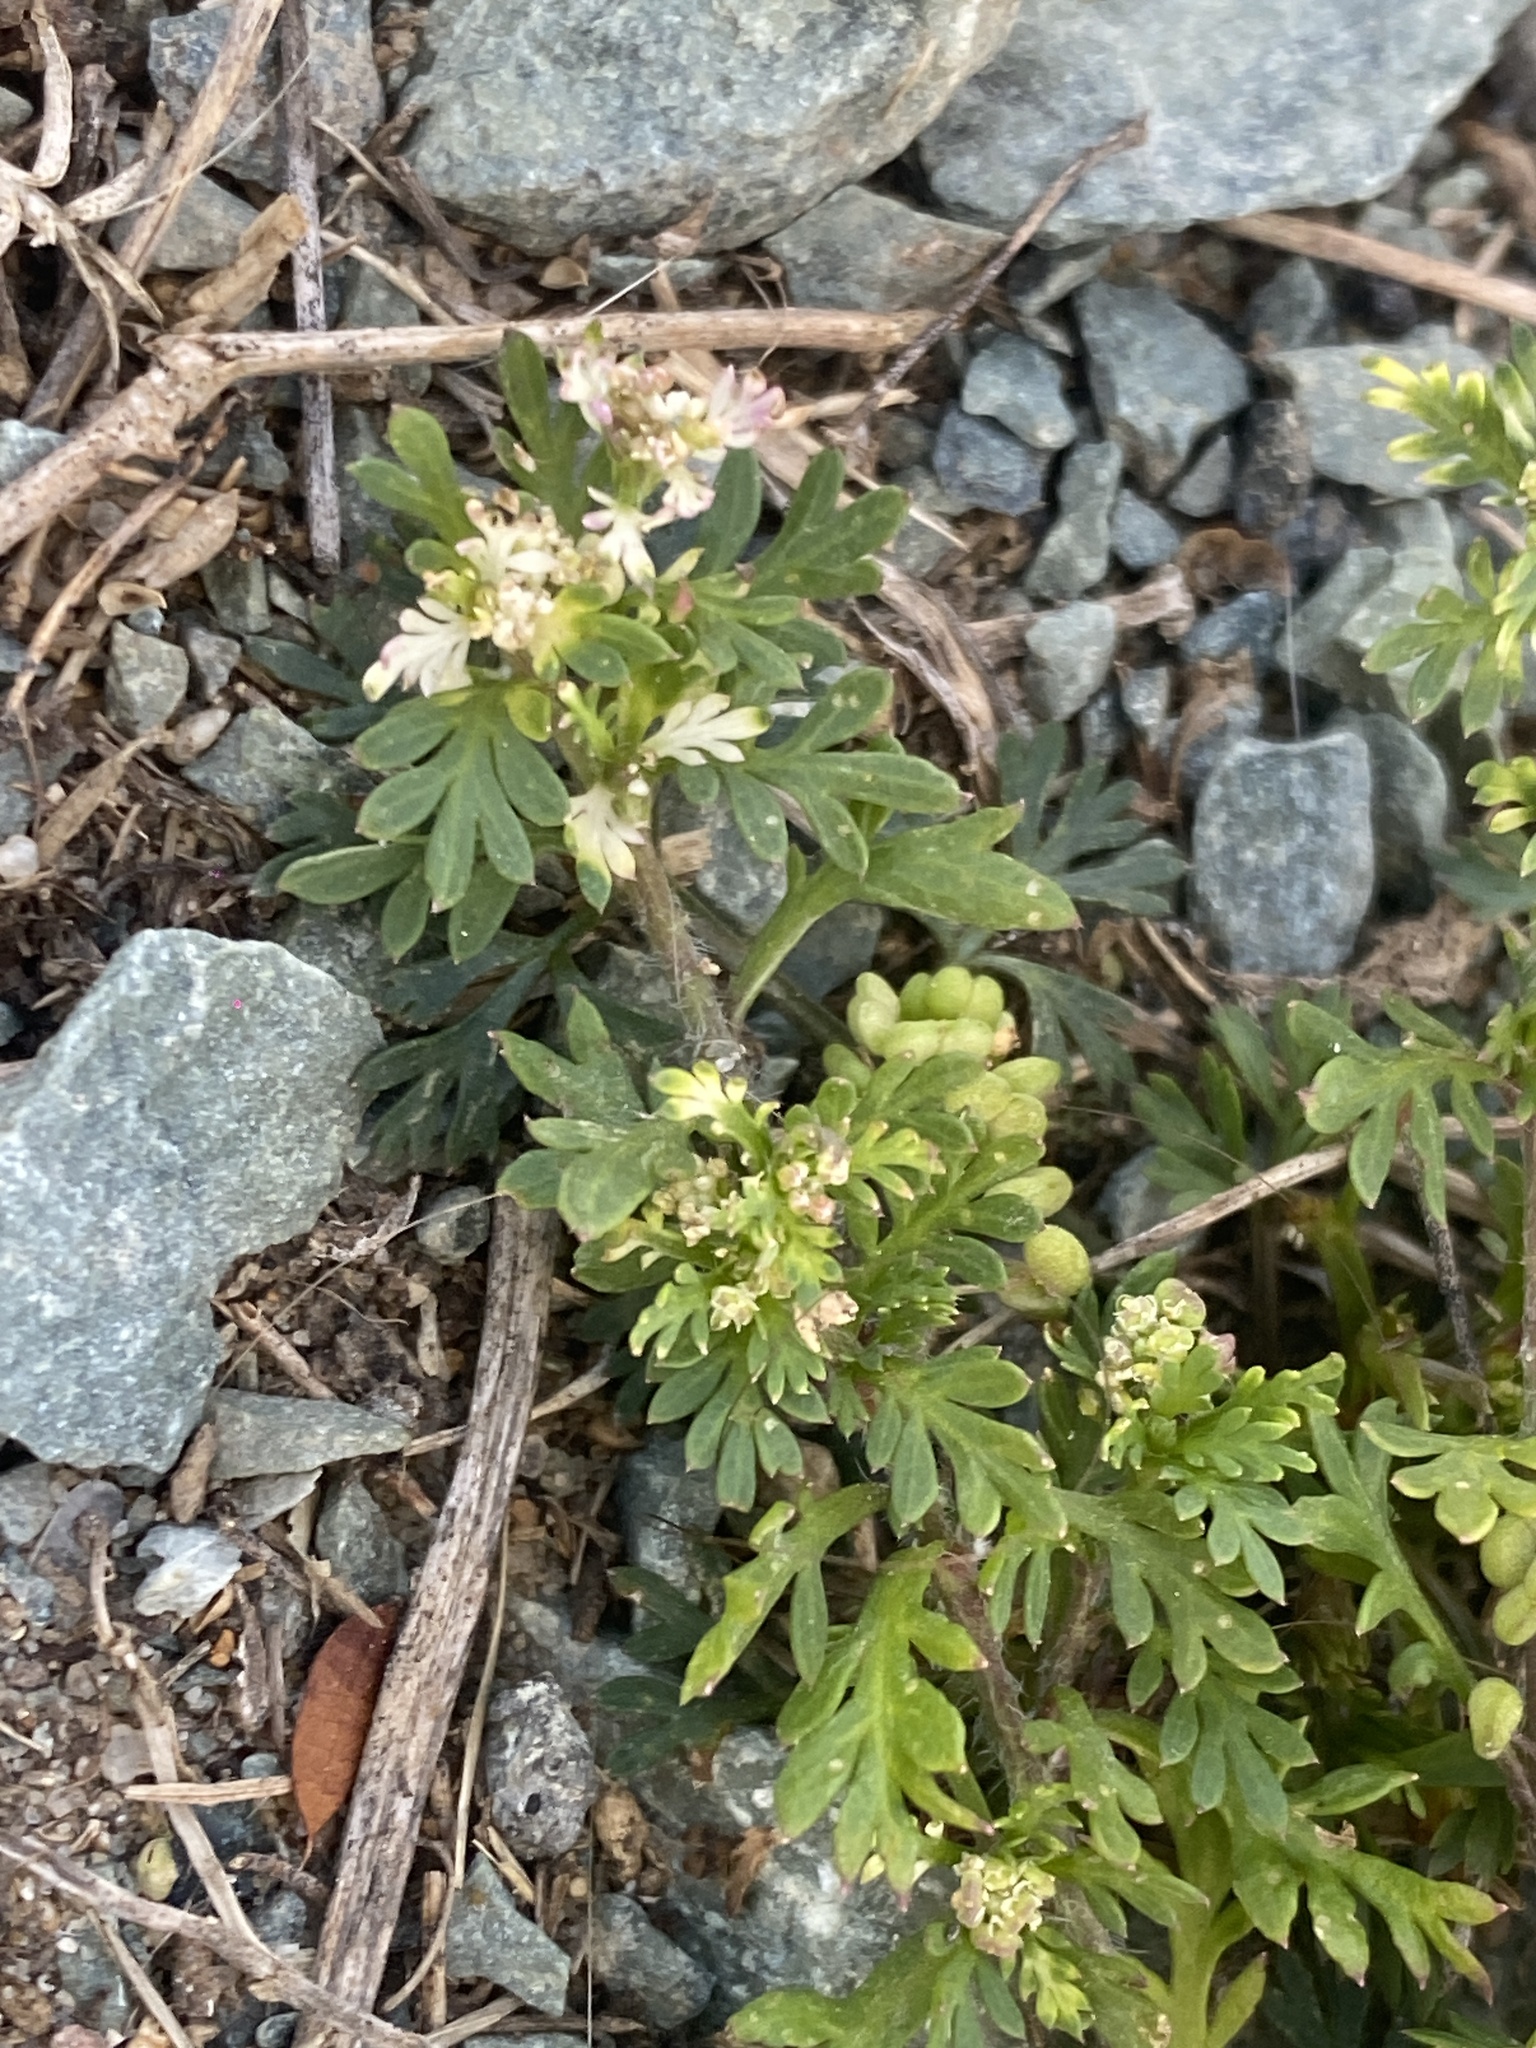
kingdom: Plantae
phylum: Tracheophyta
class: Magnoliopsida
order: Brassicales
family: Brassicaceae
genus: Lepidium
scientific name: Lepidium didymum
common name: Lesser swinecress
